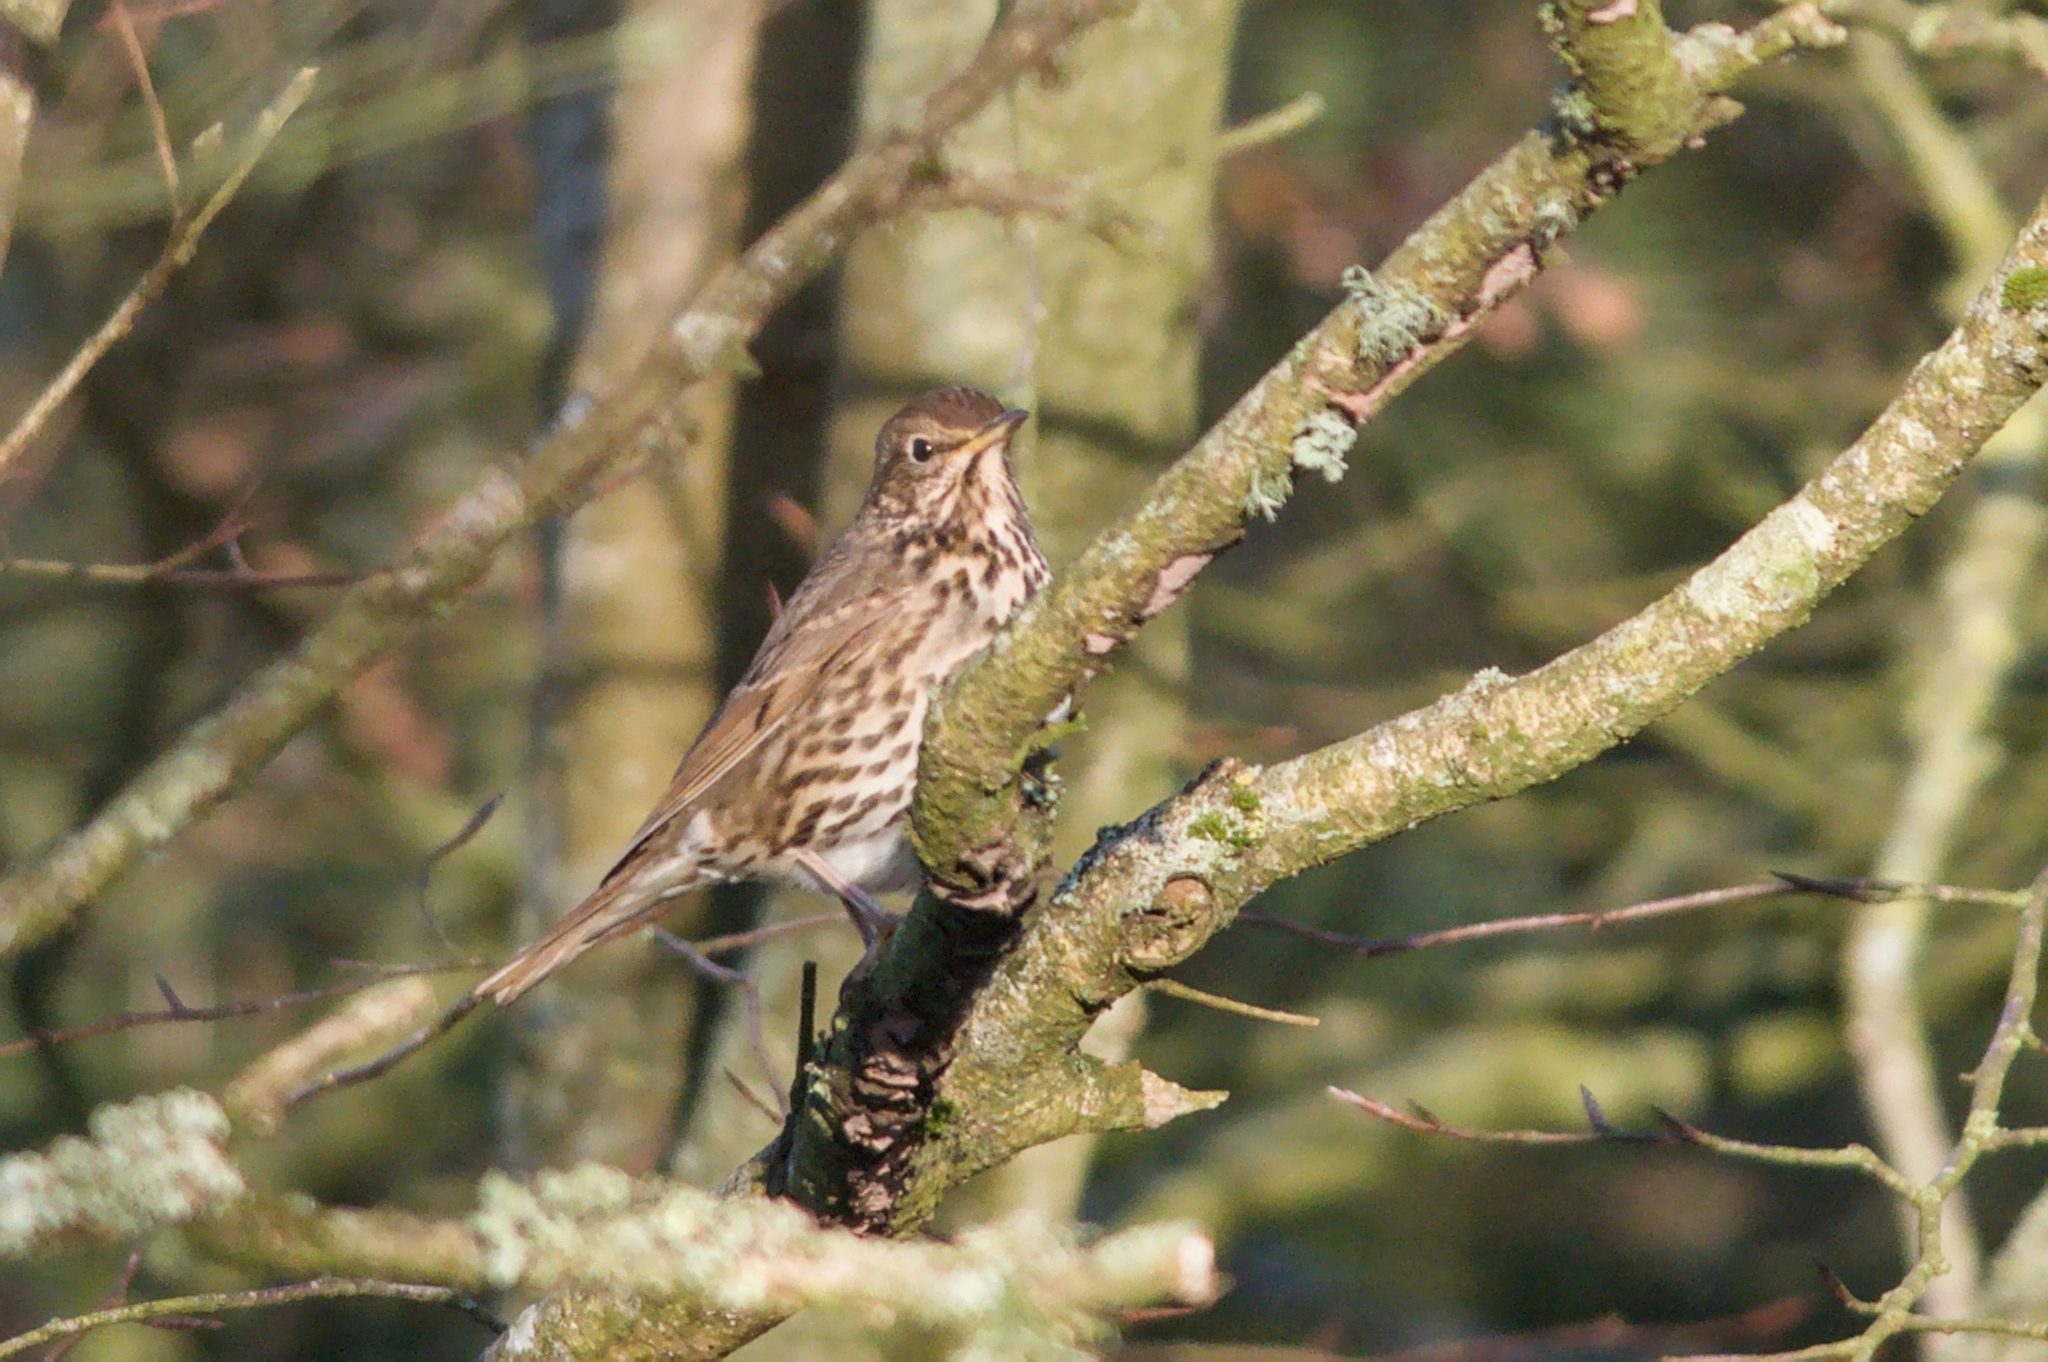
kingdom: Animalia
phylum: Chordata
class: Aves
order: Passeriformes
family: Turdidae
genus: Turdus
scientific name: Turdus philomelos
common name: Song thrush
